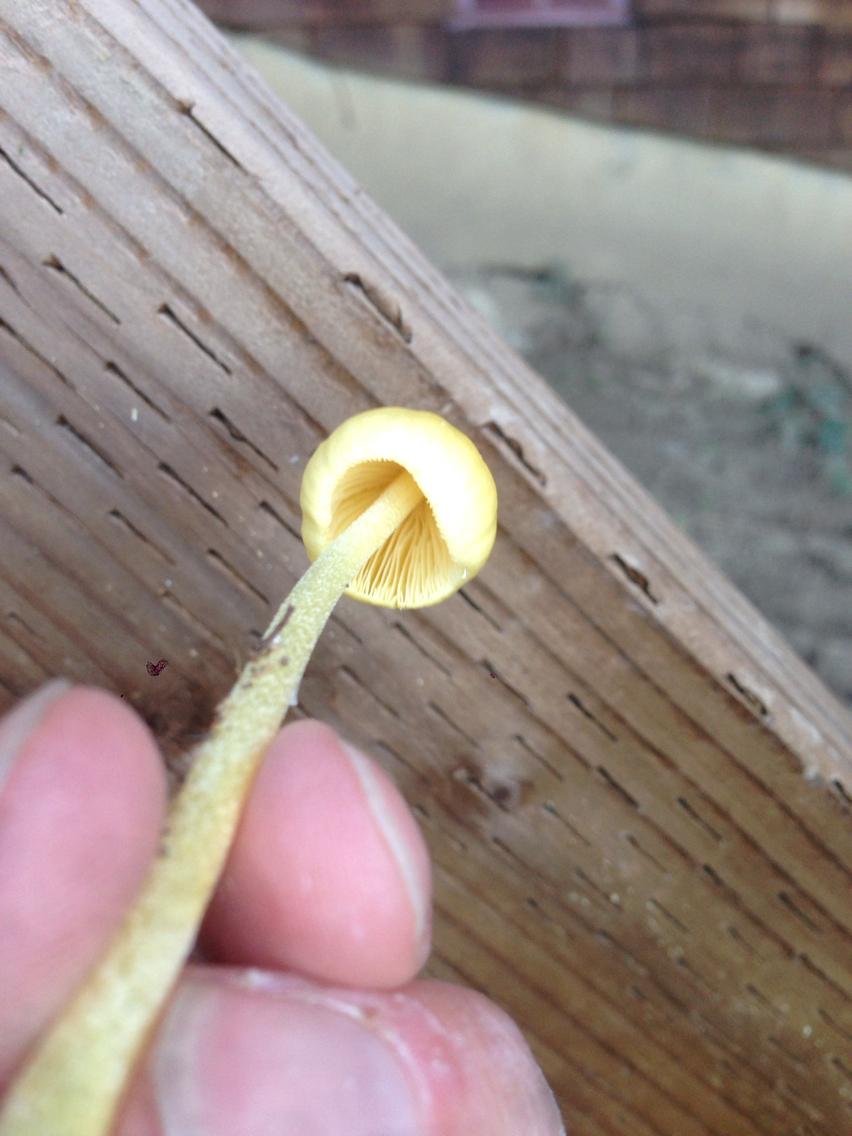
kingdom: Fungi
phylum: Basidiomycota
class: Agaricomycetes
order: Agaricales
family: Bolbitiaceae
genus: Bolbitius
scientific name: Bolbitius titubans
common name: Yellow fieldcap
